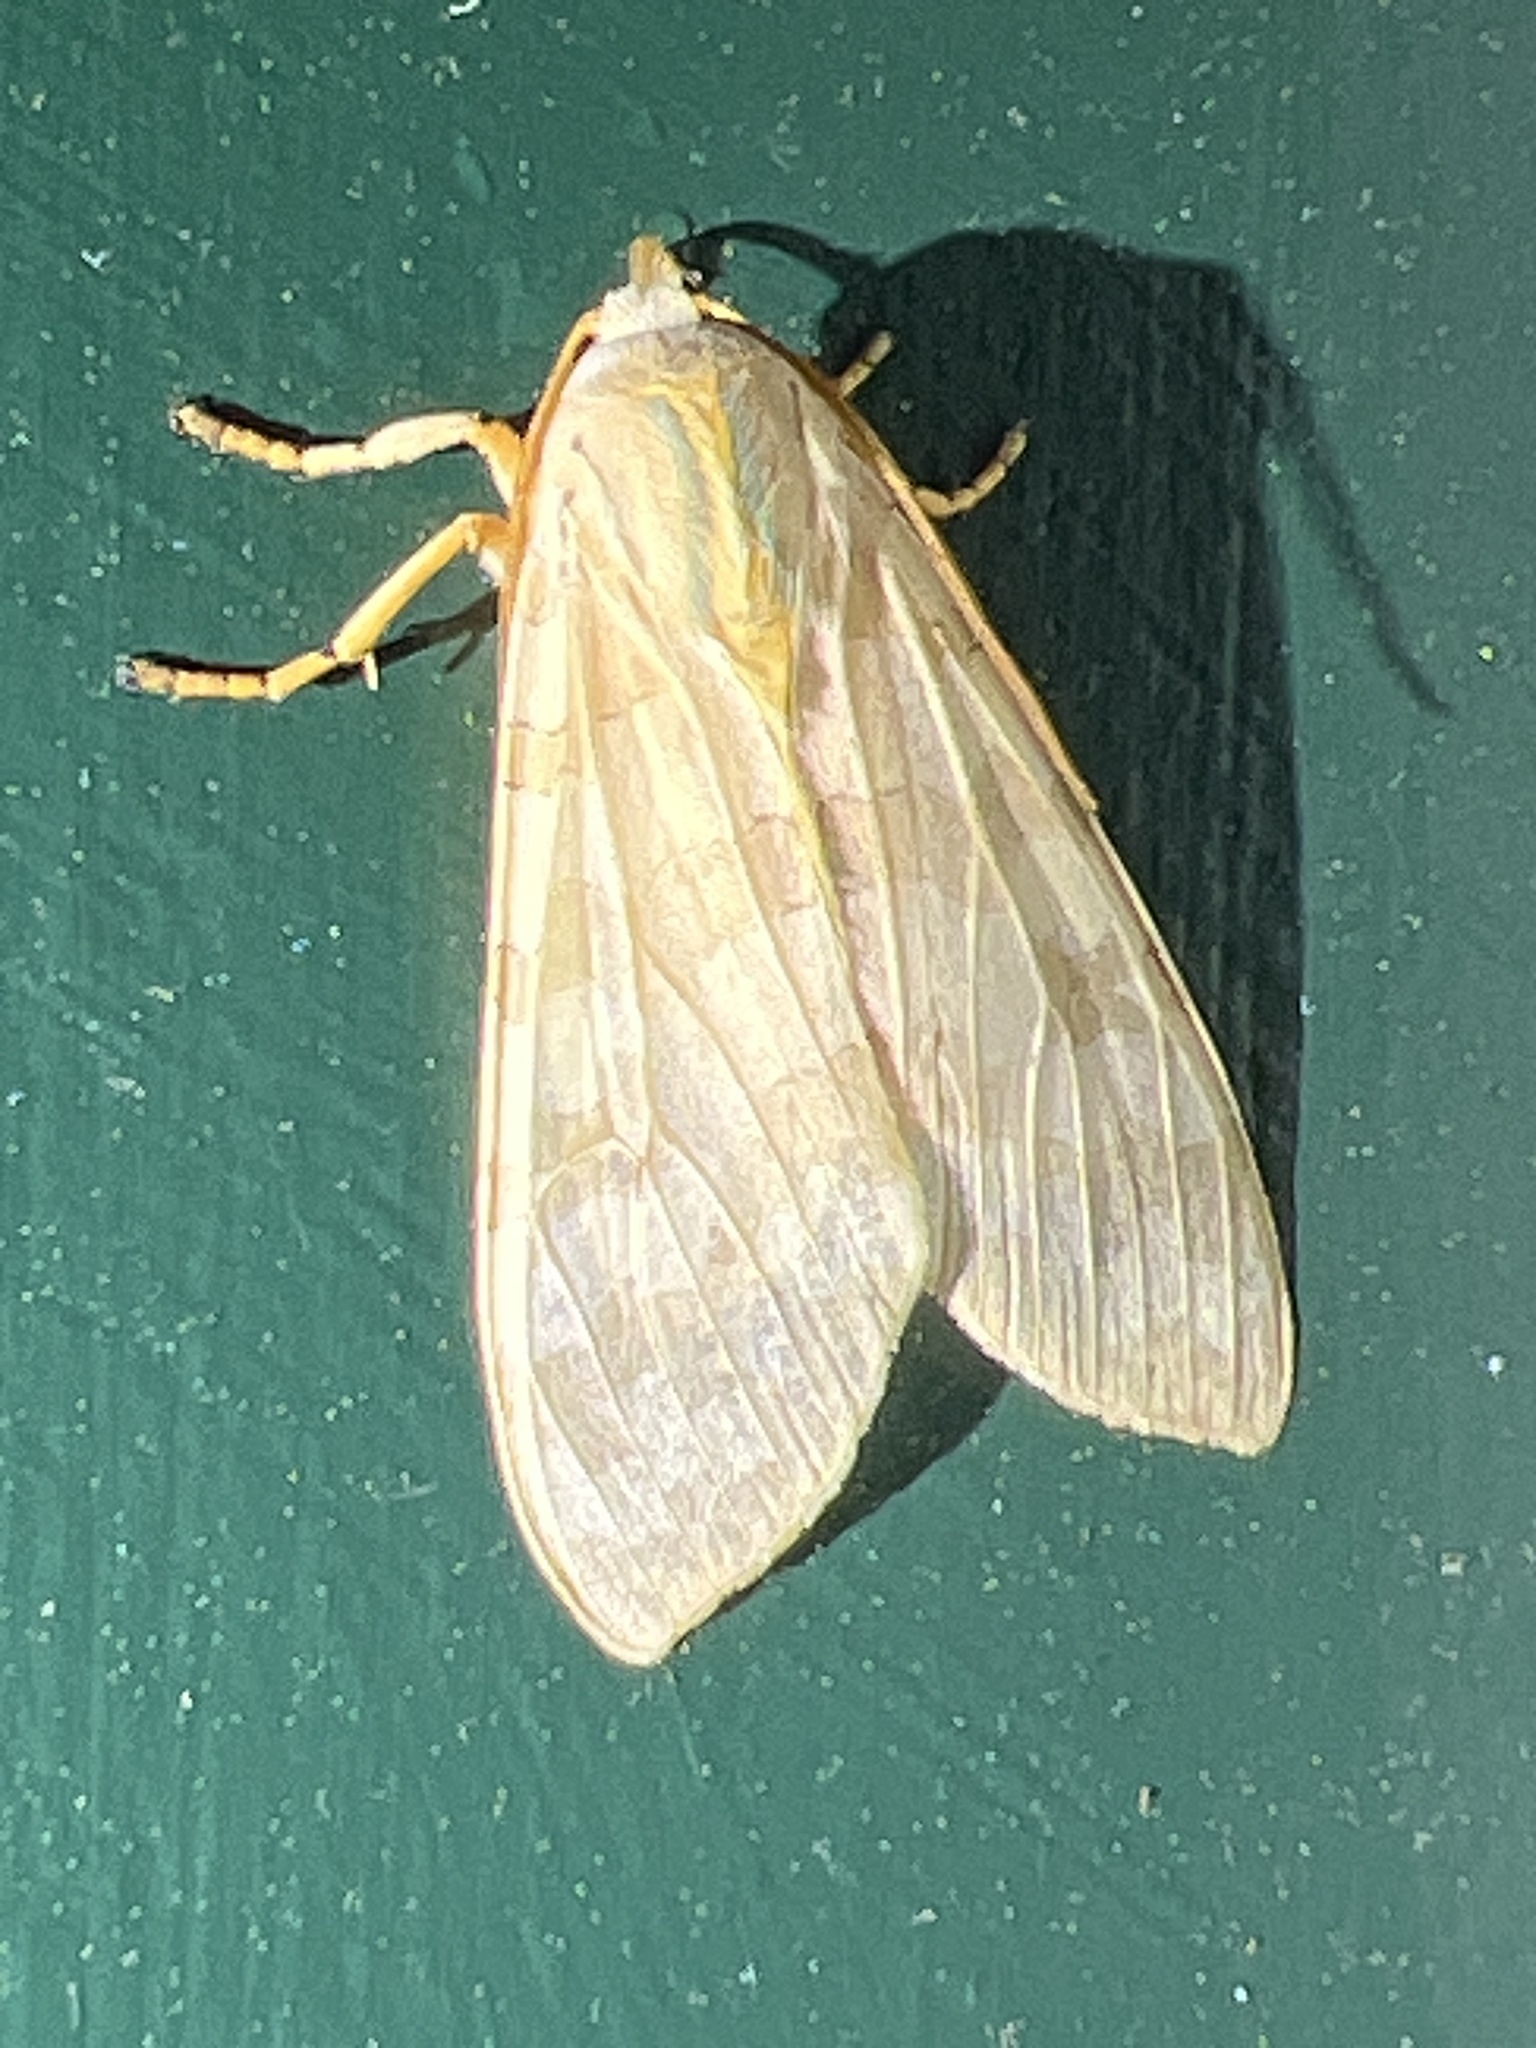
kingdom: Animalia
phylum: Arthropoda
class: Insecta
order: Lepidoptera
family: Erebidae
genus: Halysidota
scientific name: Halysidota
